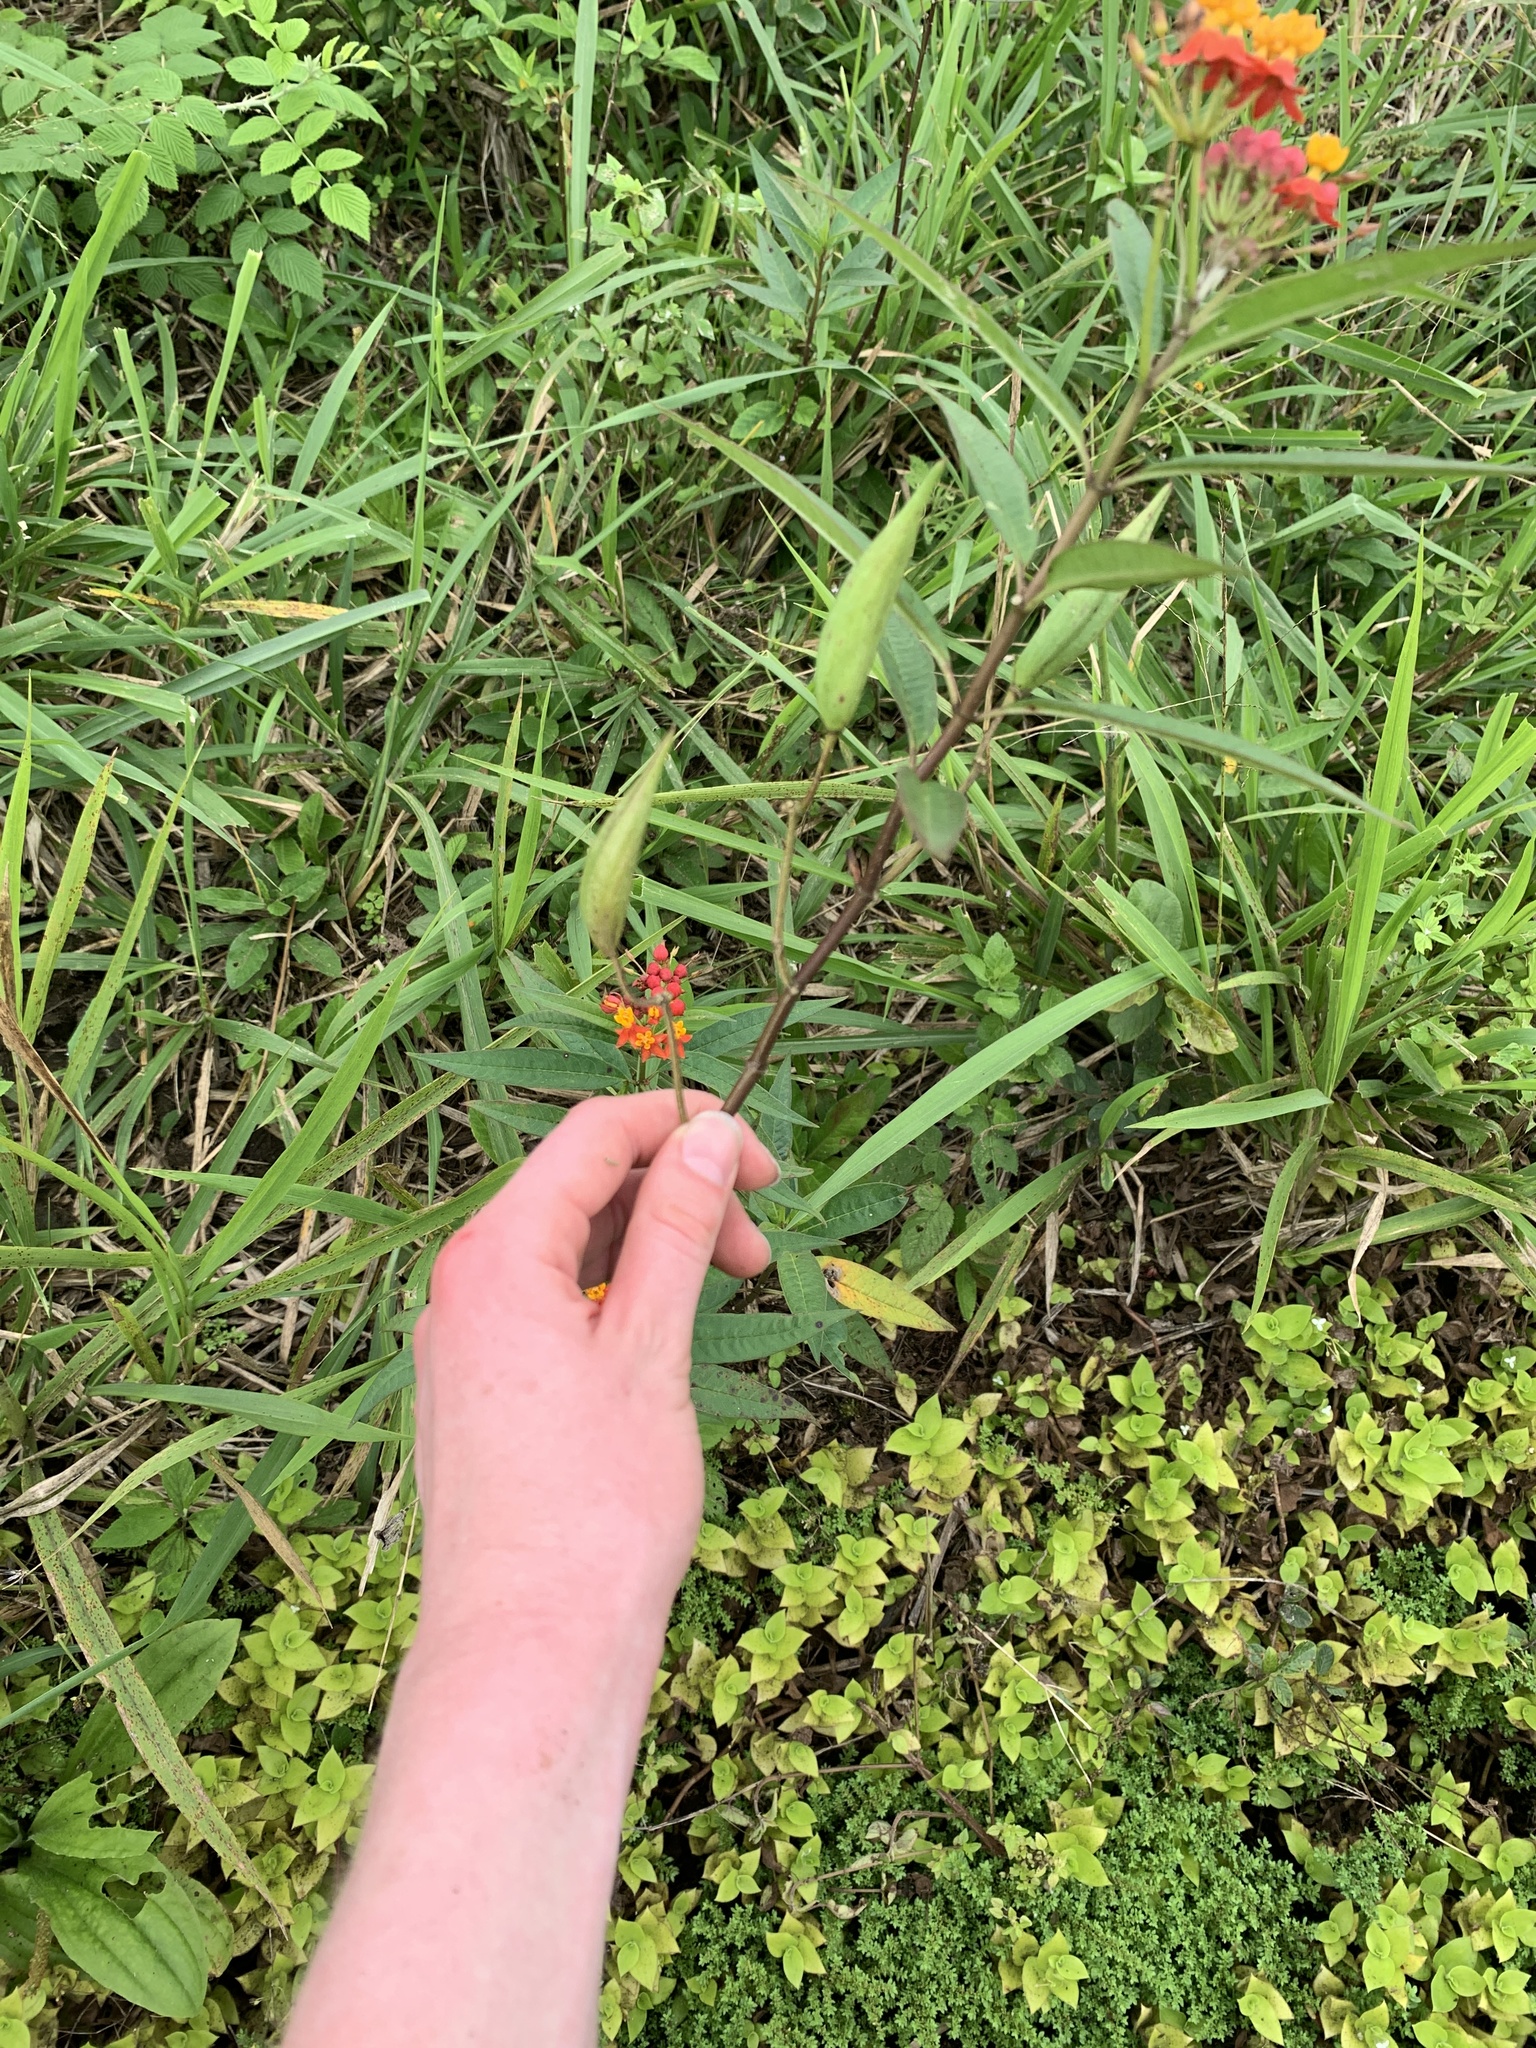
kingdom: Plantae
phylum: Tracheophyta
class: Magnoliopsida
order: Gentianales
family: Apocynaceae
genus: Asclepias
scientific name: Asclepias curassavica
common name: Bloodflower
